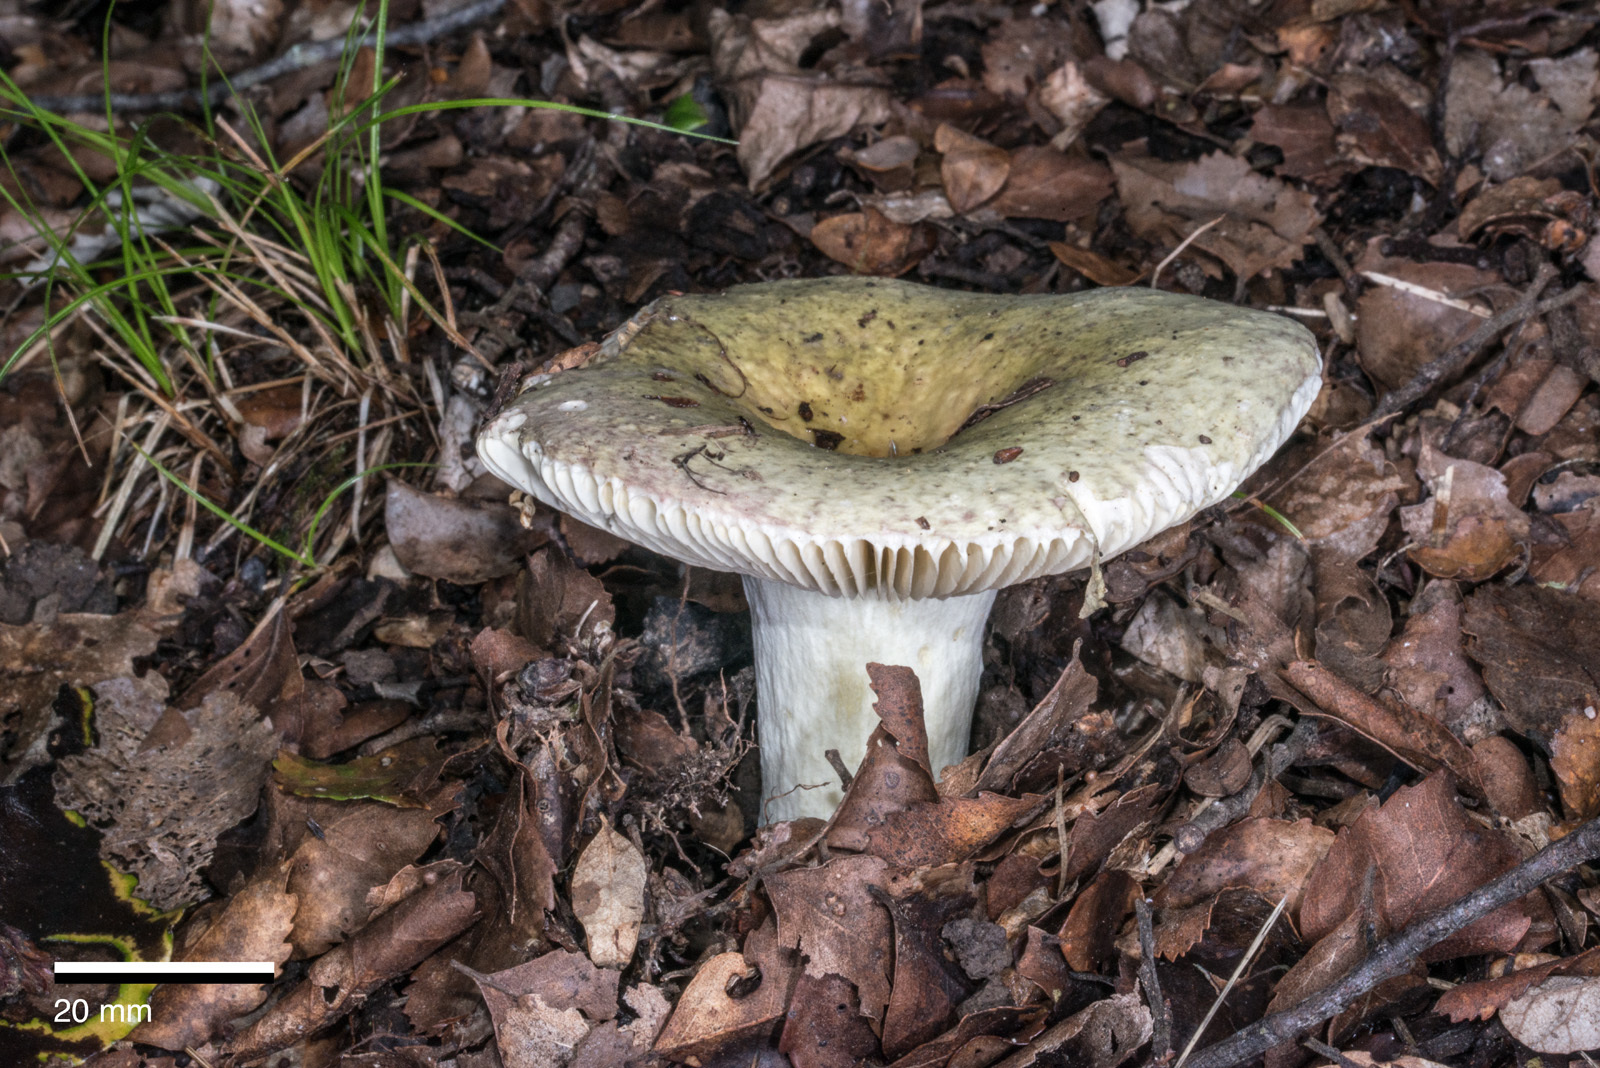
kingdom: Fungi
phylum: Basidiomycota
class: Agaricomycetes
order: Russulales
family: Russulaceae
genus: Russula
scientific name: Russula umerensis
